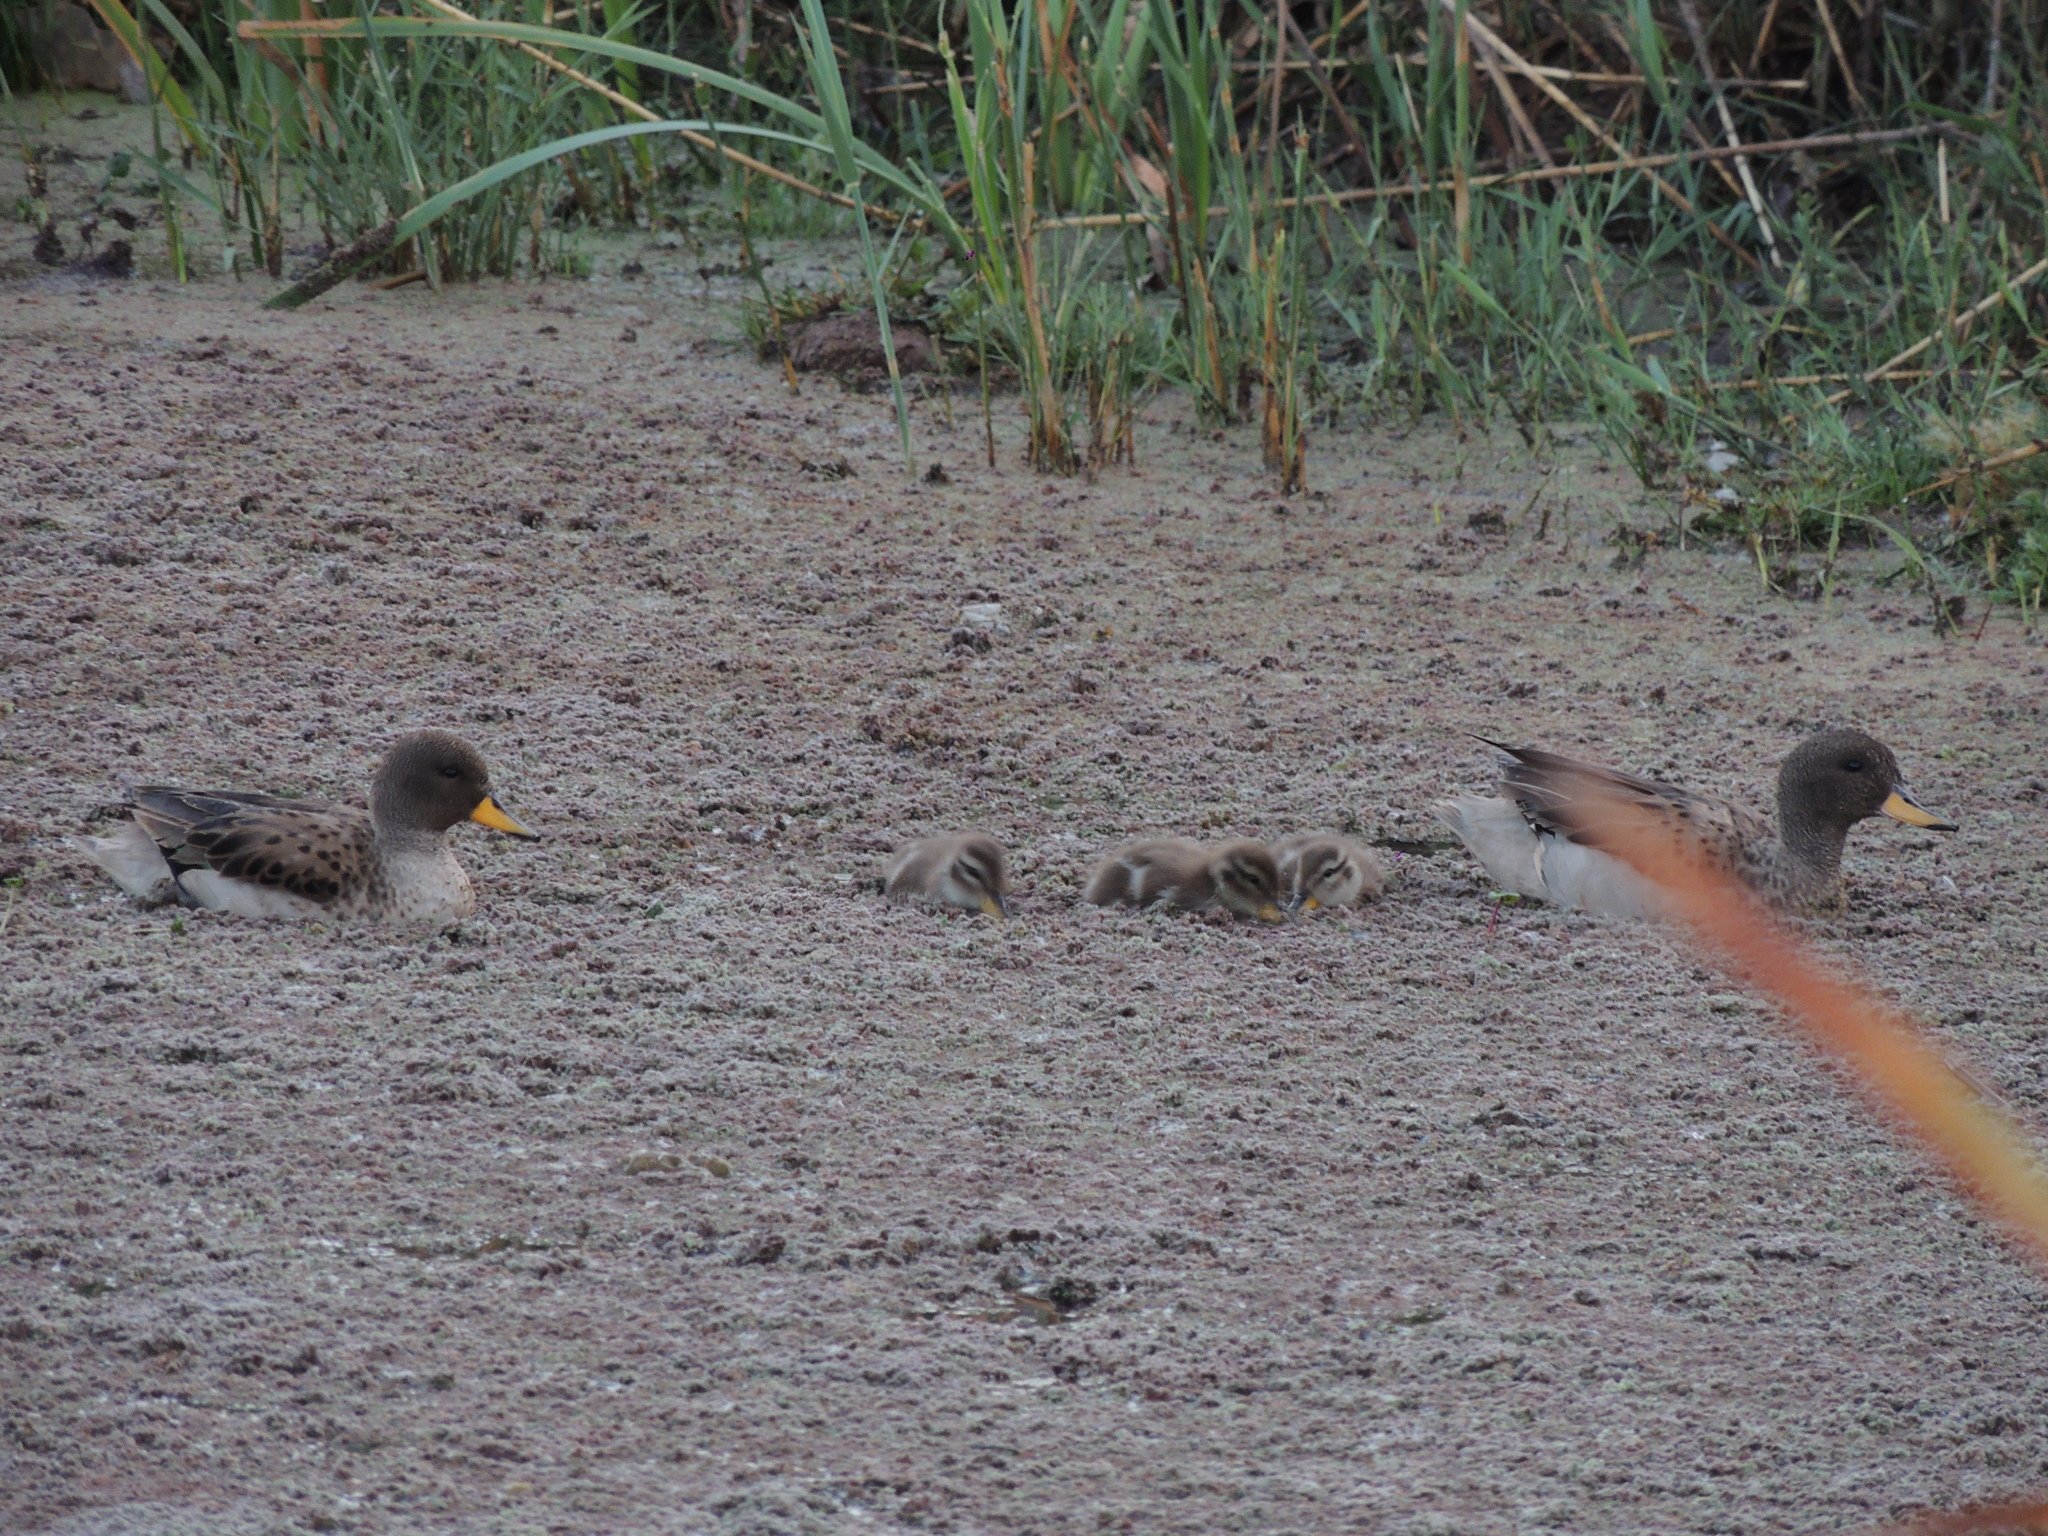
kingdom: Animalia
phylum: Chordata
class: Aves
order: Anseriformes
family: Anatidae
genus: Anas
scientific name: Anas flavirostris
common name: Yellow-billed teal
